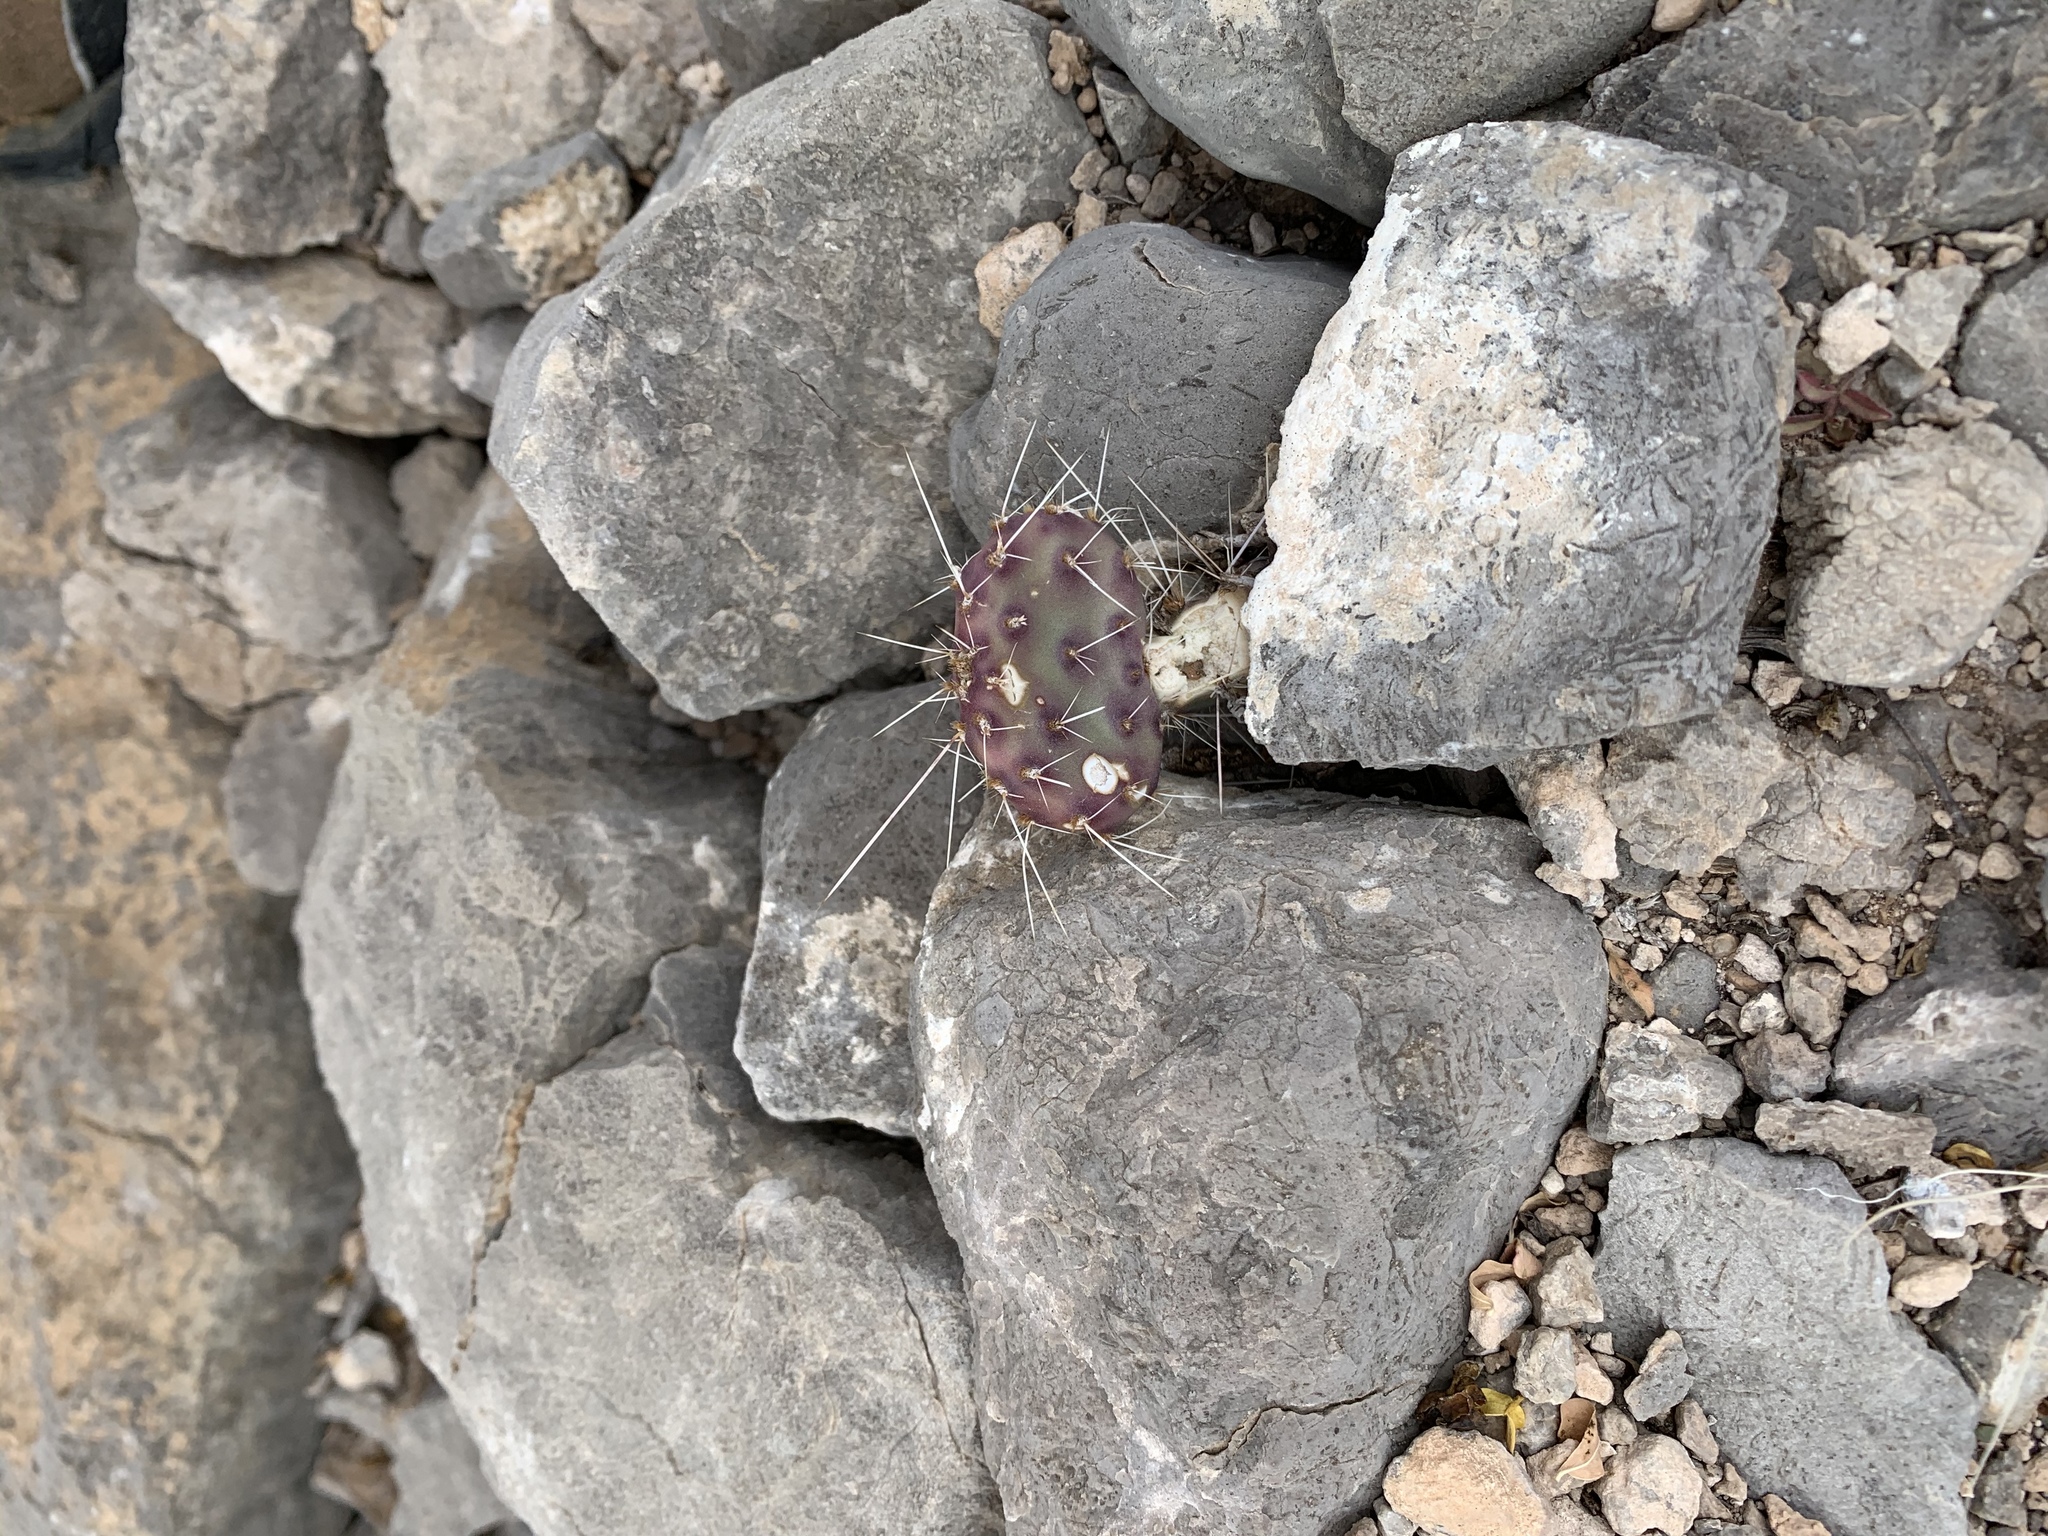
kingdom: Plantae
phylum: Tracheophyta
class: Magnoliopsida
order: Caryophyllales
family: Cactaceae
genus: Opuntia
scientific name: Opuntia macrocentra
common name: Purple prickly-pear
